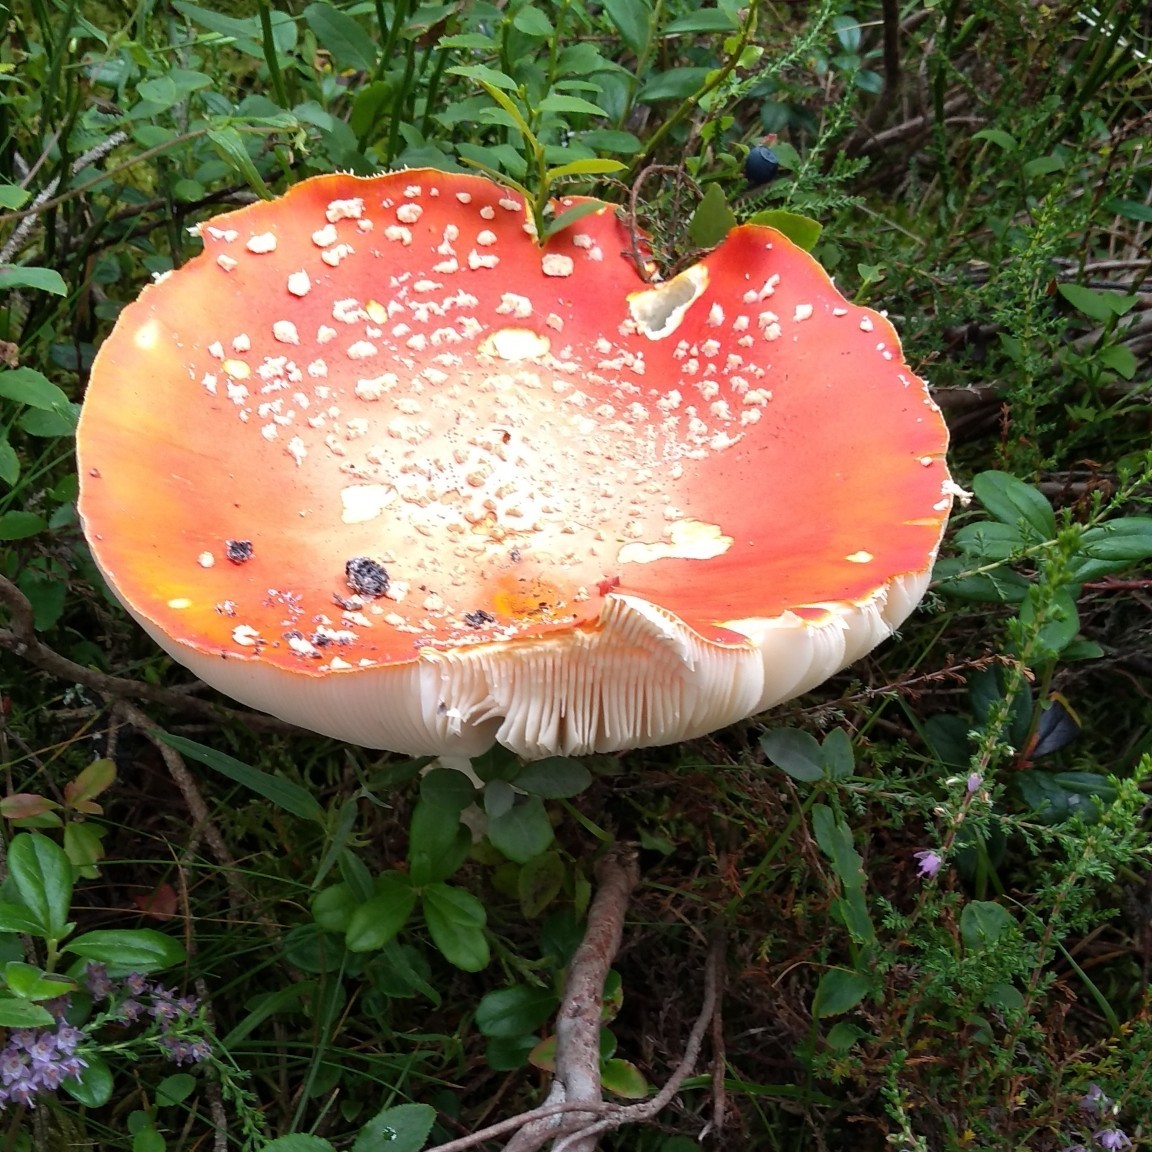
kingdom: Fungi
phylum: Basidiomycota
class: Agaricomycetes
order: Agaricales
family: Amanitaceae
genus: Amanita
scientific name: Amanita muscaria
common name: Fly agaric
